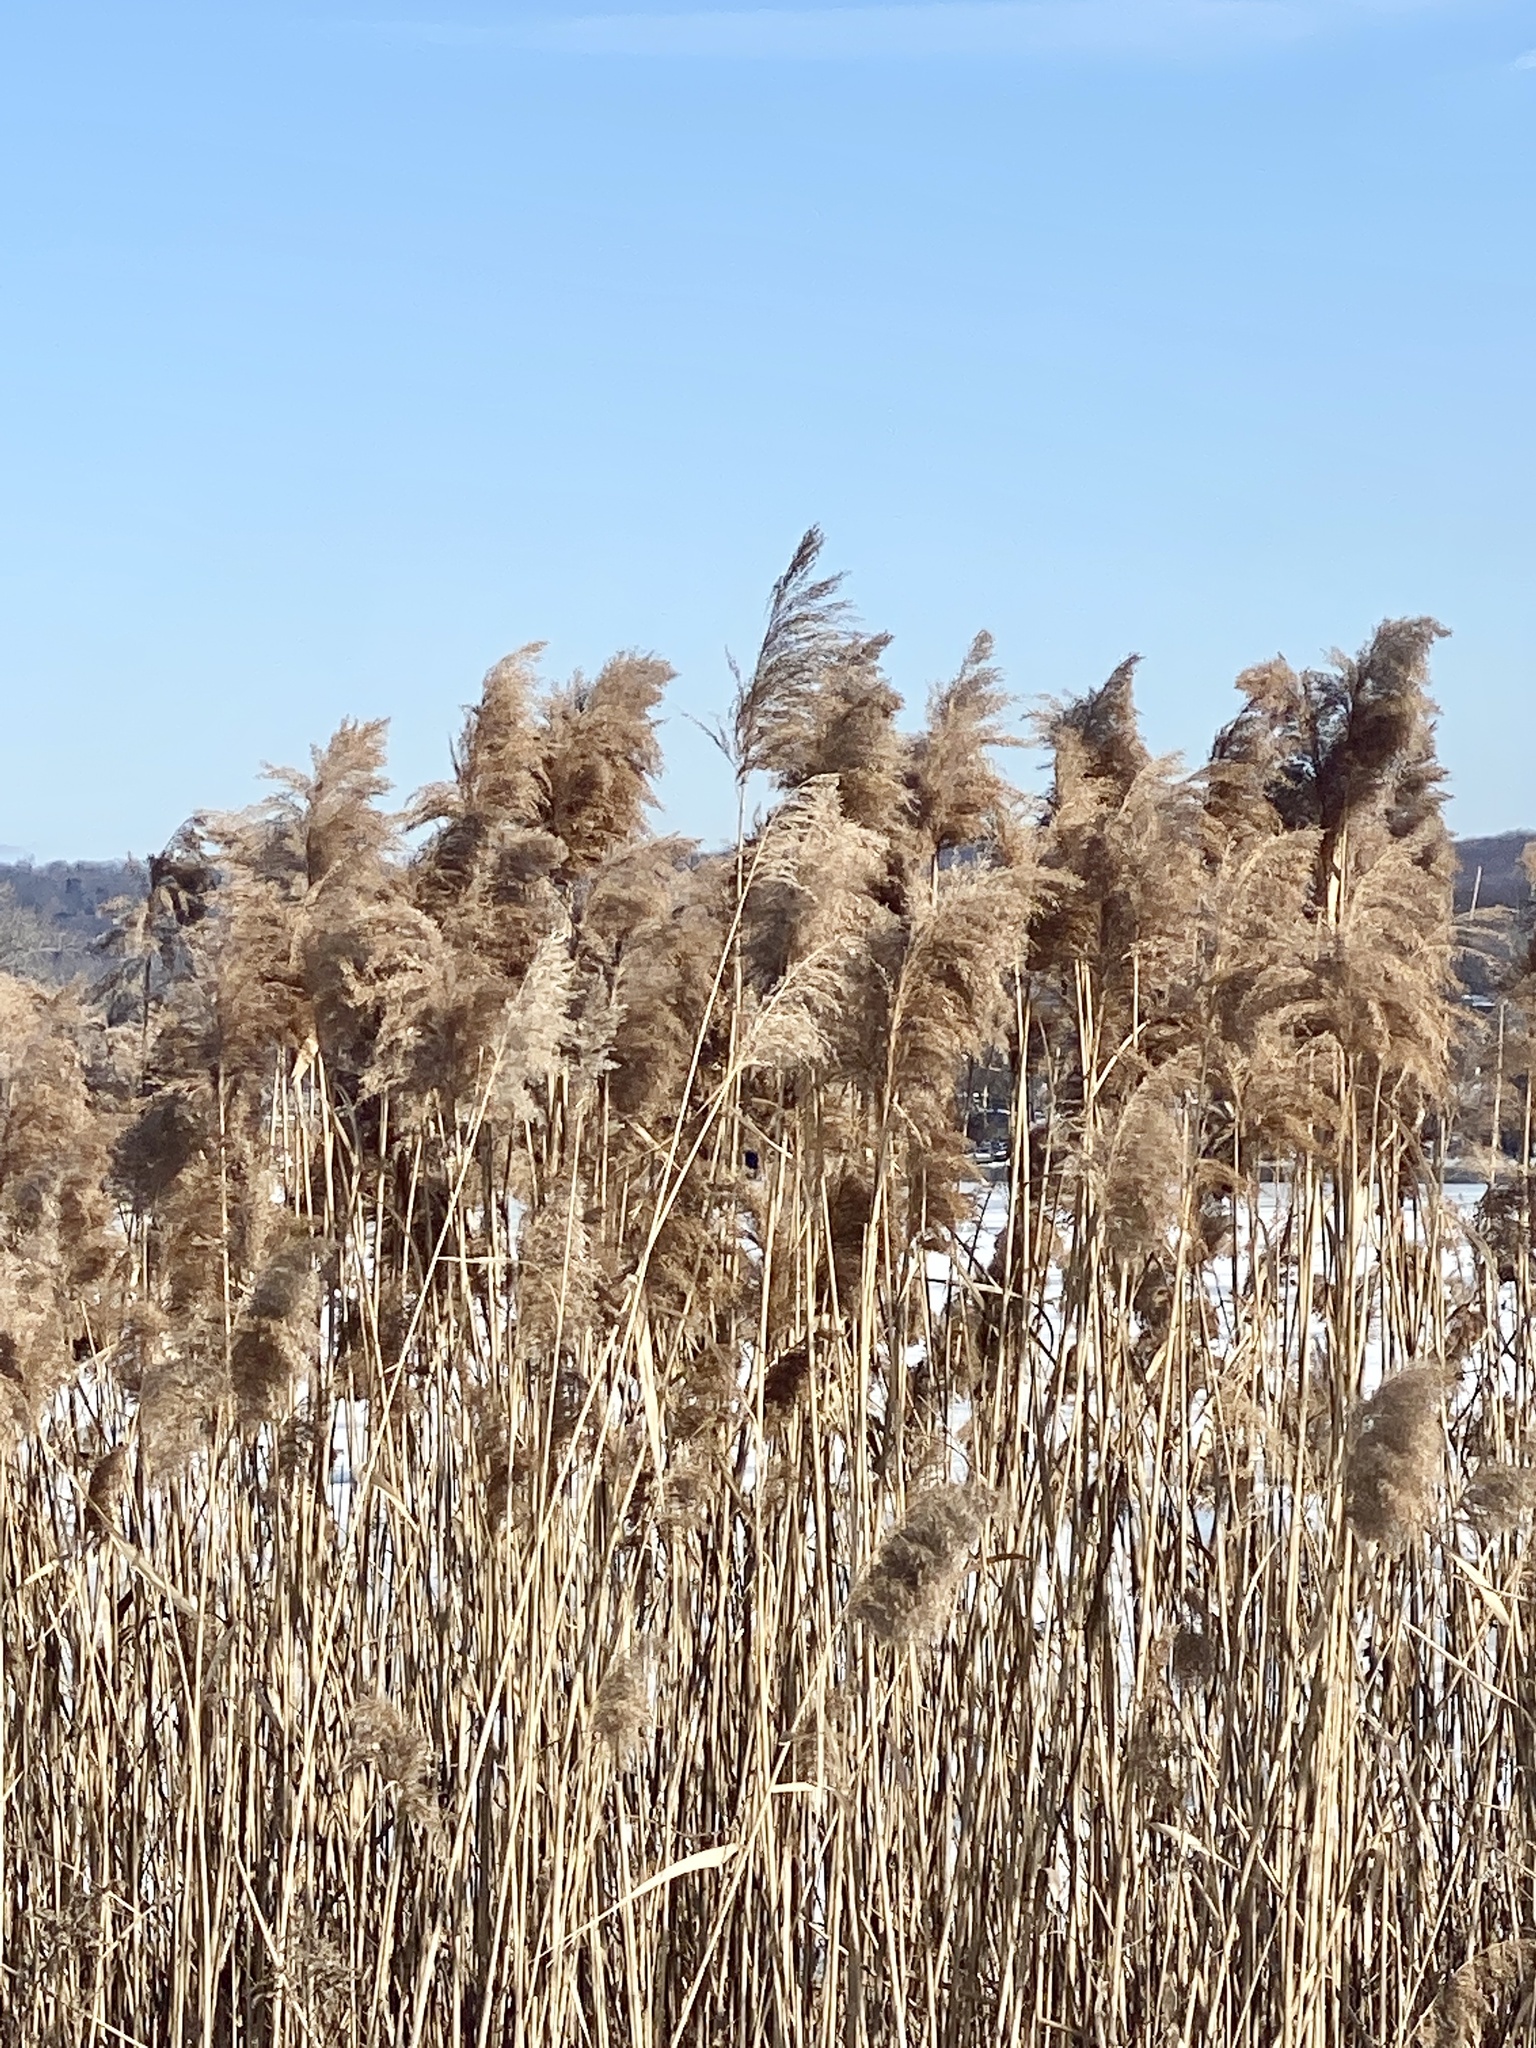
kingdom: Plantae
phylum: Tracheophyta
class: Liliopsida
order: Poales
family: Poaceae
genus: Phragmites
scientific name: Phragmites australis
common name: Common reed
